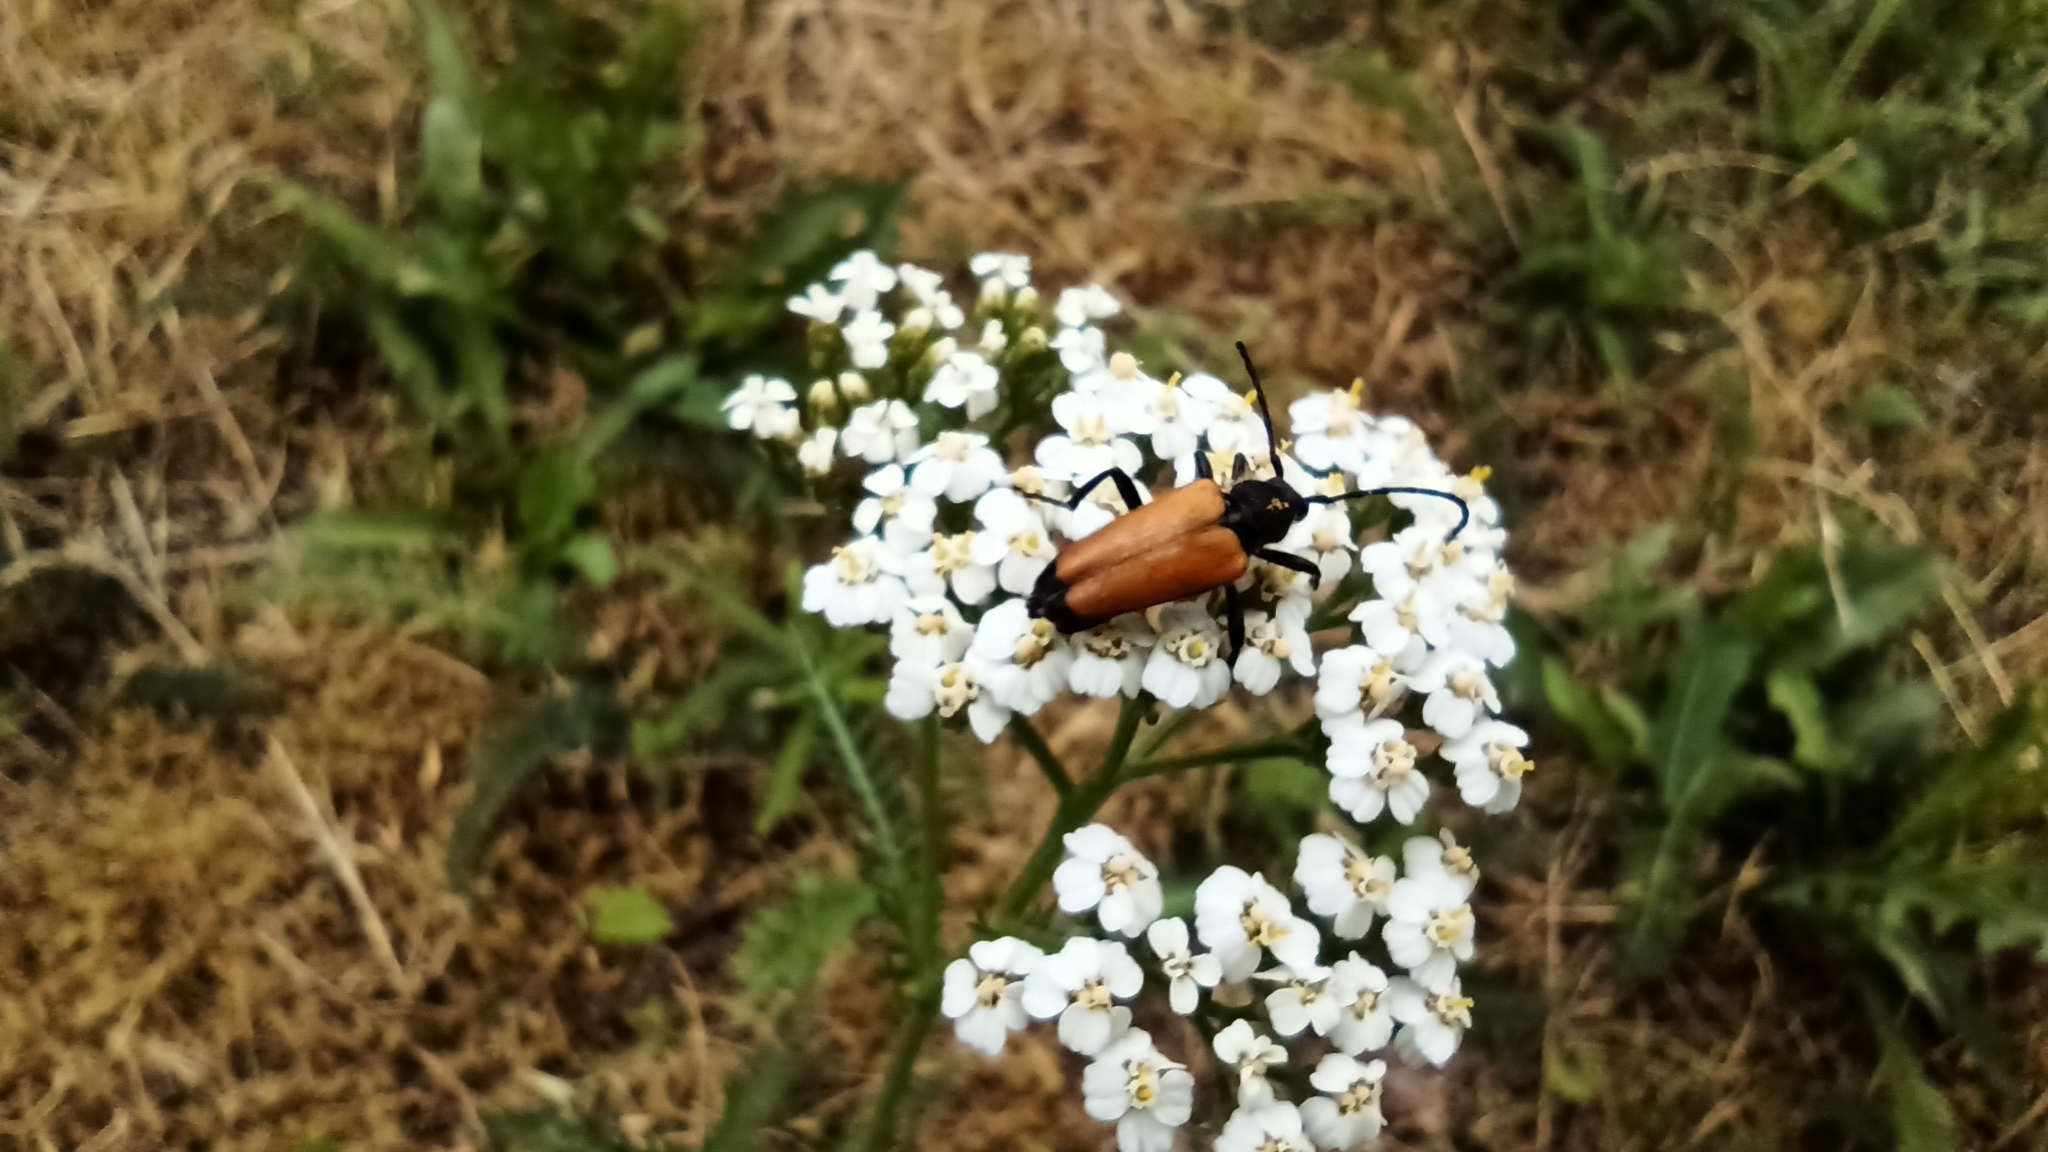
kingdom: Animalia
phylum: Arthropoda
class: Insecta
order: Coleoptera
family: Cerambycidae
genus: Paracorymbia
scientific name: Paracorymbia fulva
